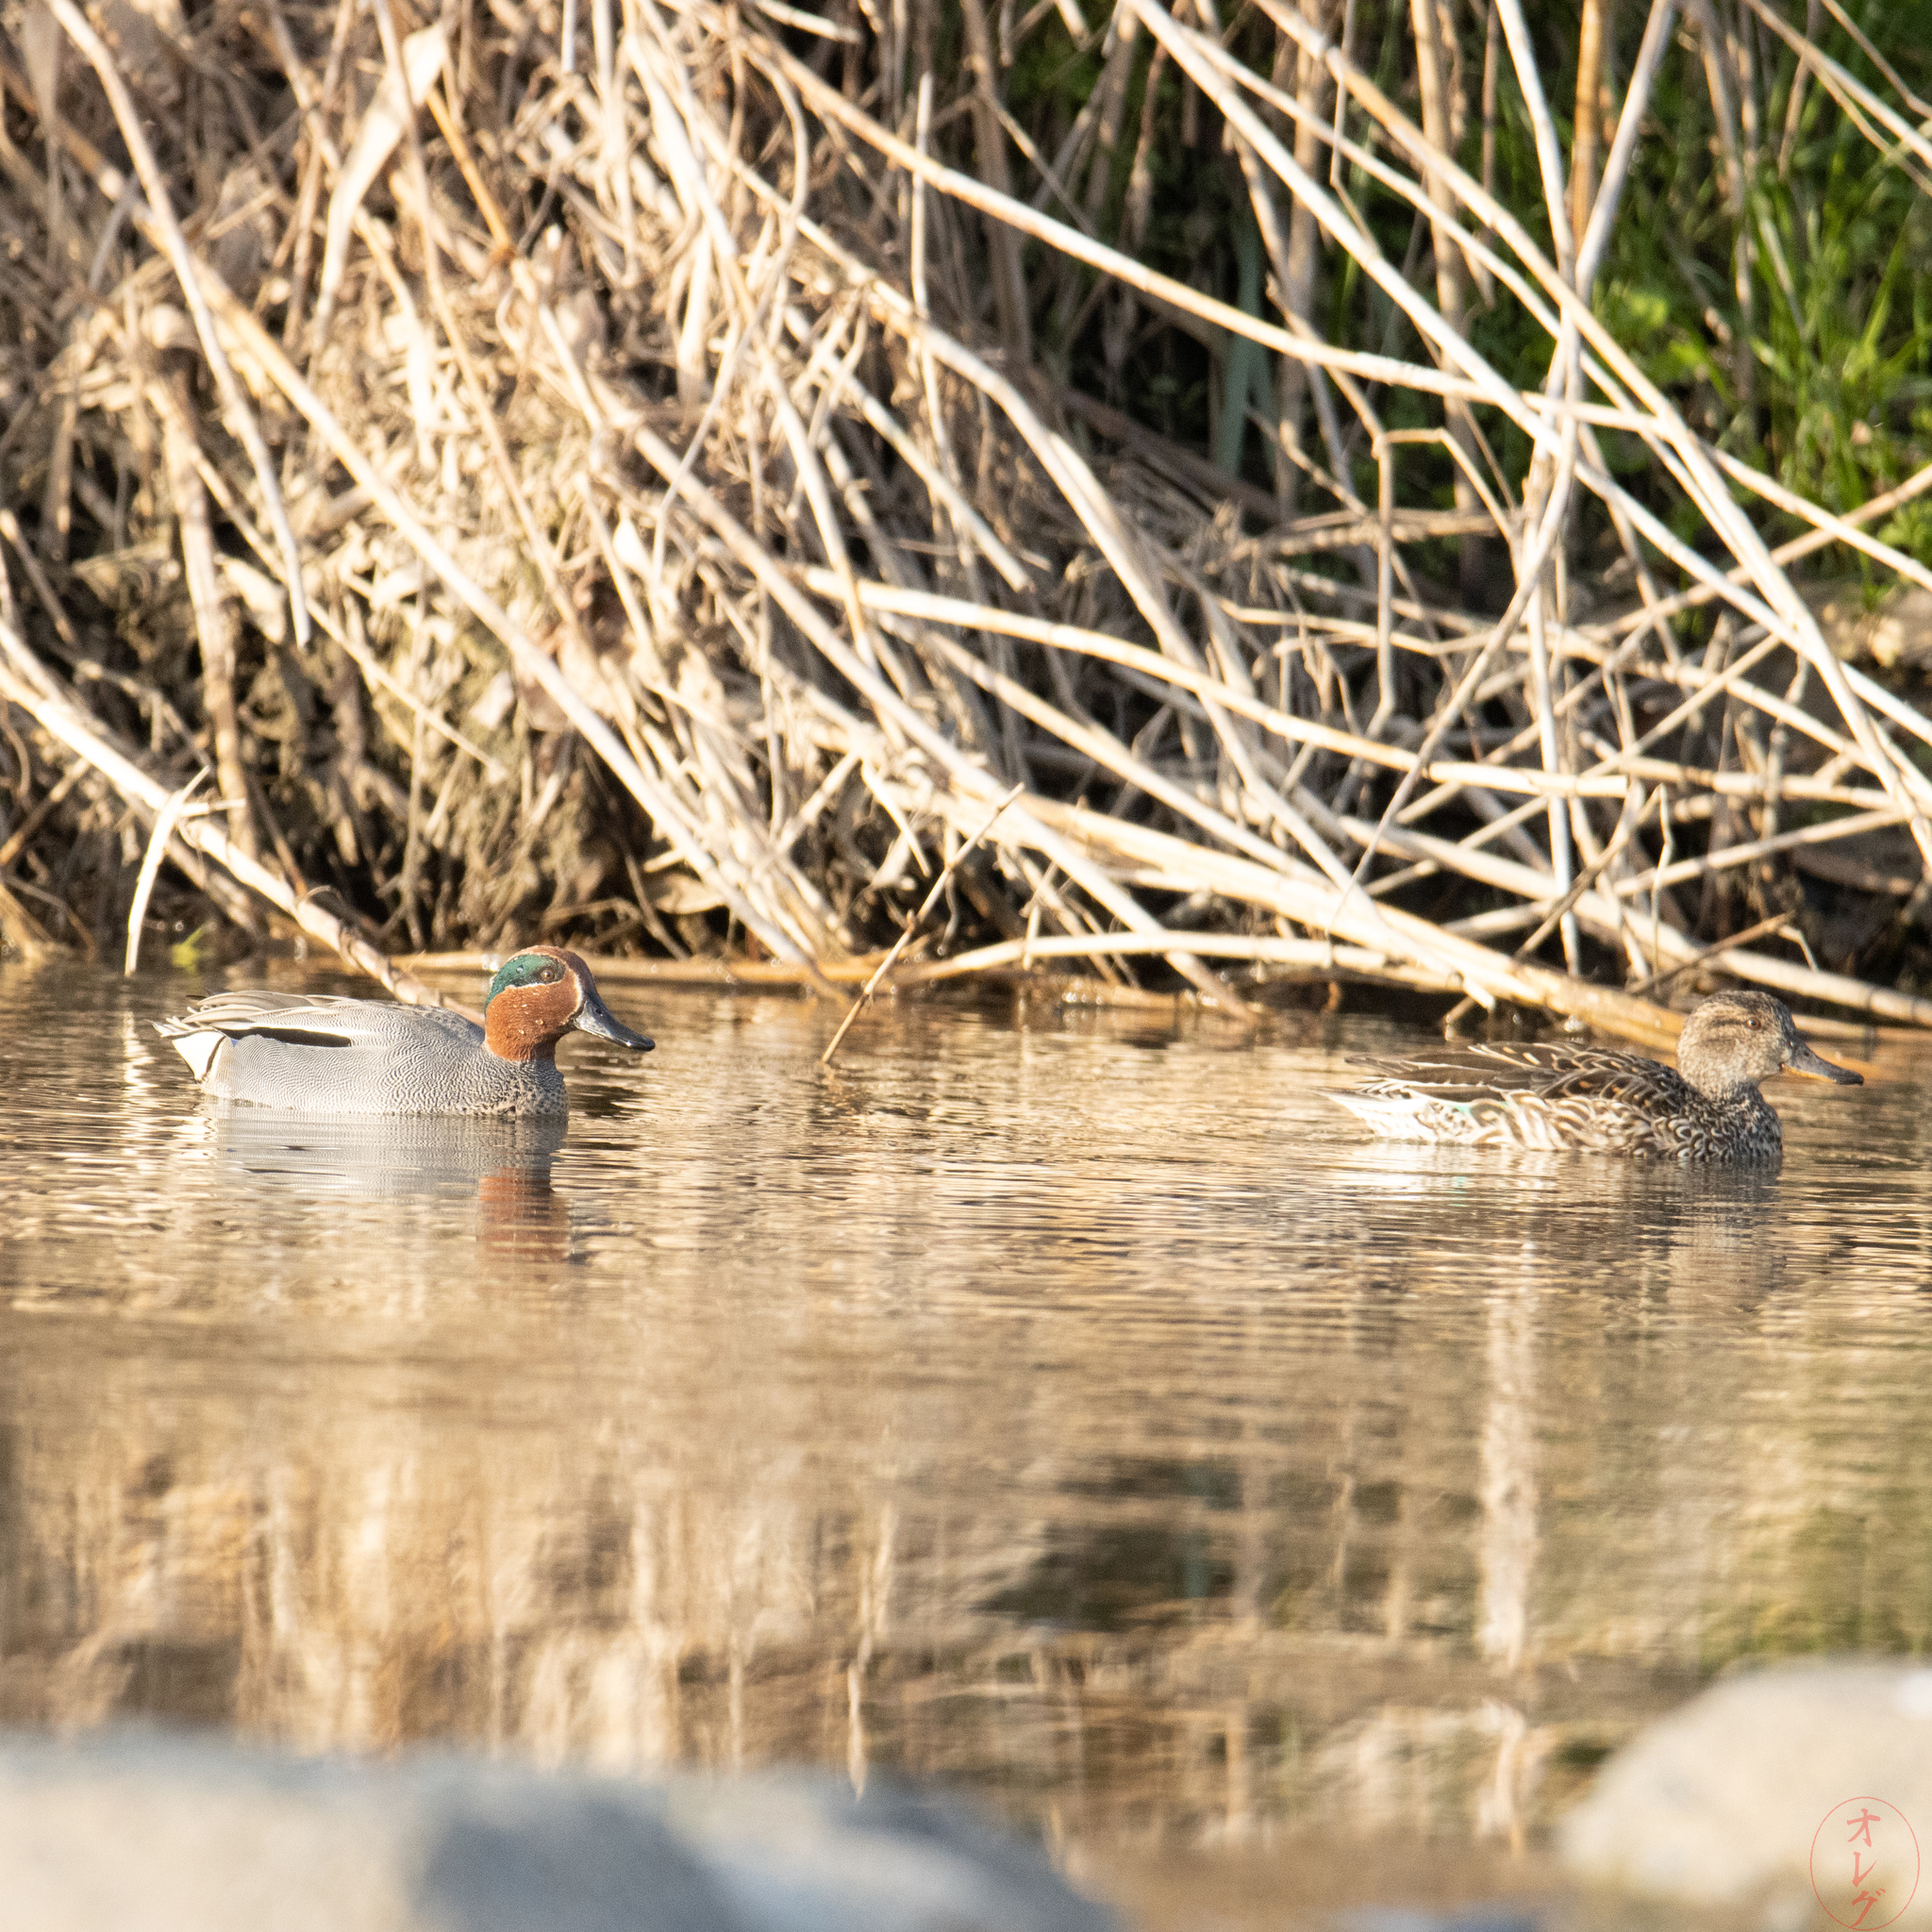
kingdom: Animalia
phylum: Chordata
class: Aves
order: Anseriformes
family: Anatidae
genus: Anas
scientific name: Anas crecca
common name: Eurasian teal
